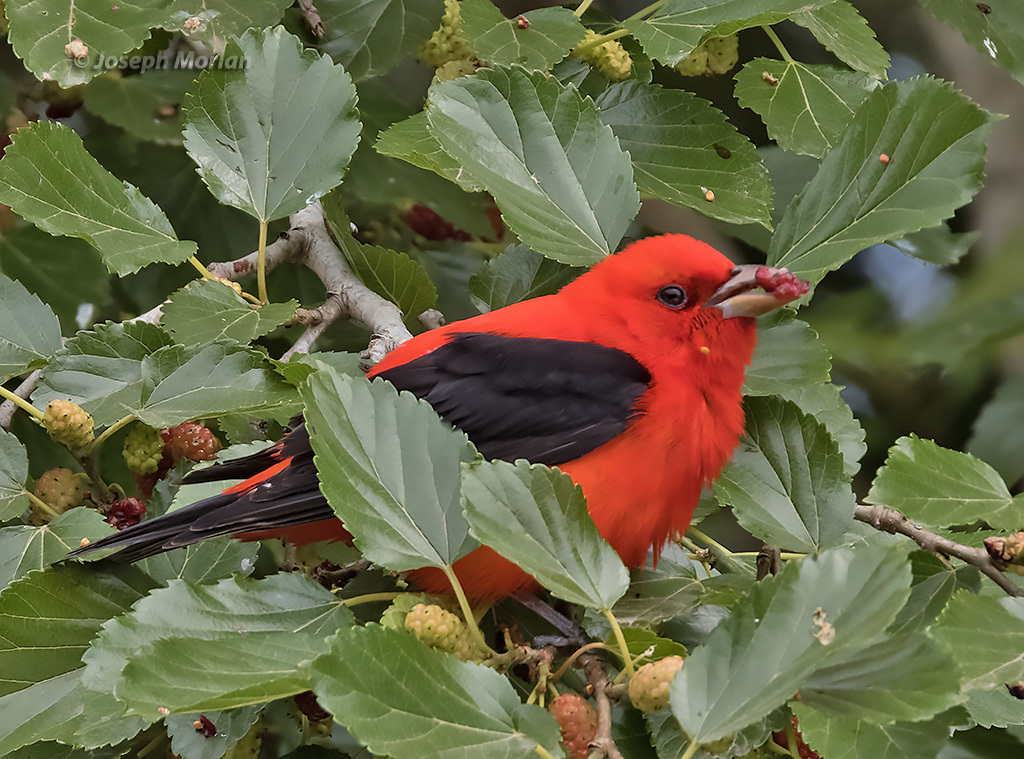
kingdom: Animalia
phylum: Chordata
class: Aves
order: Passeriformes
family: Cardinalidae
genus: Piranga
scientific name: Piranga olivacea
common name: Scarlet tanager
